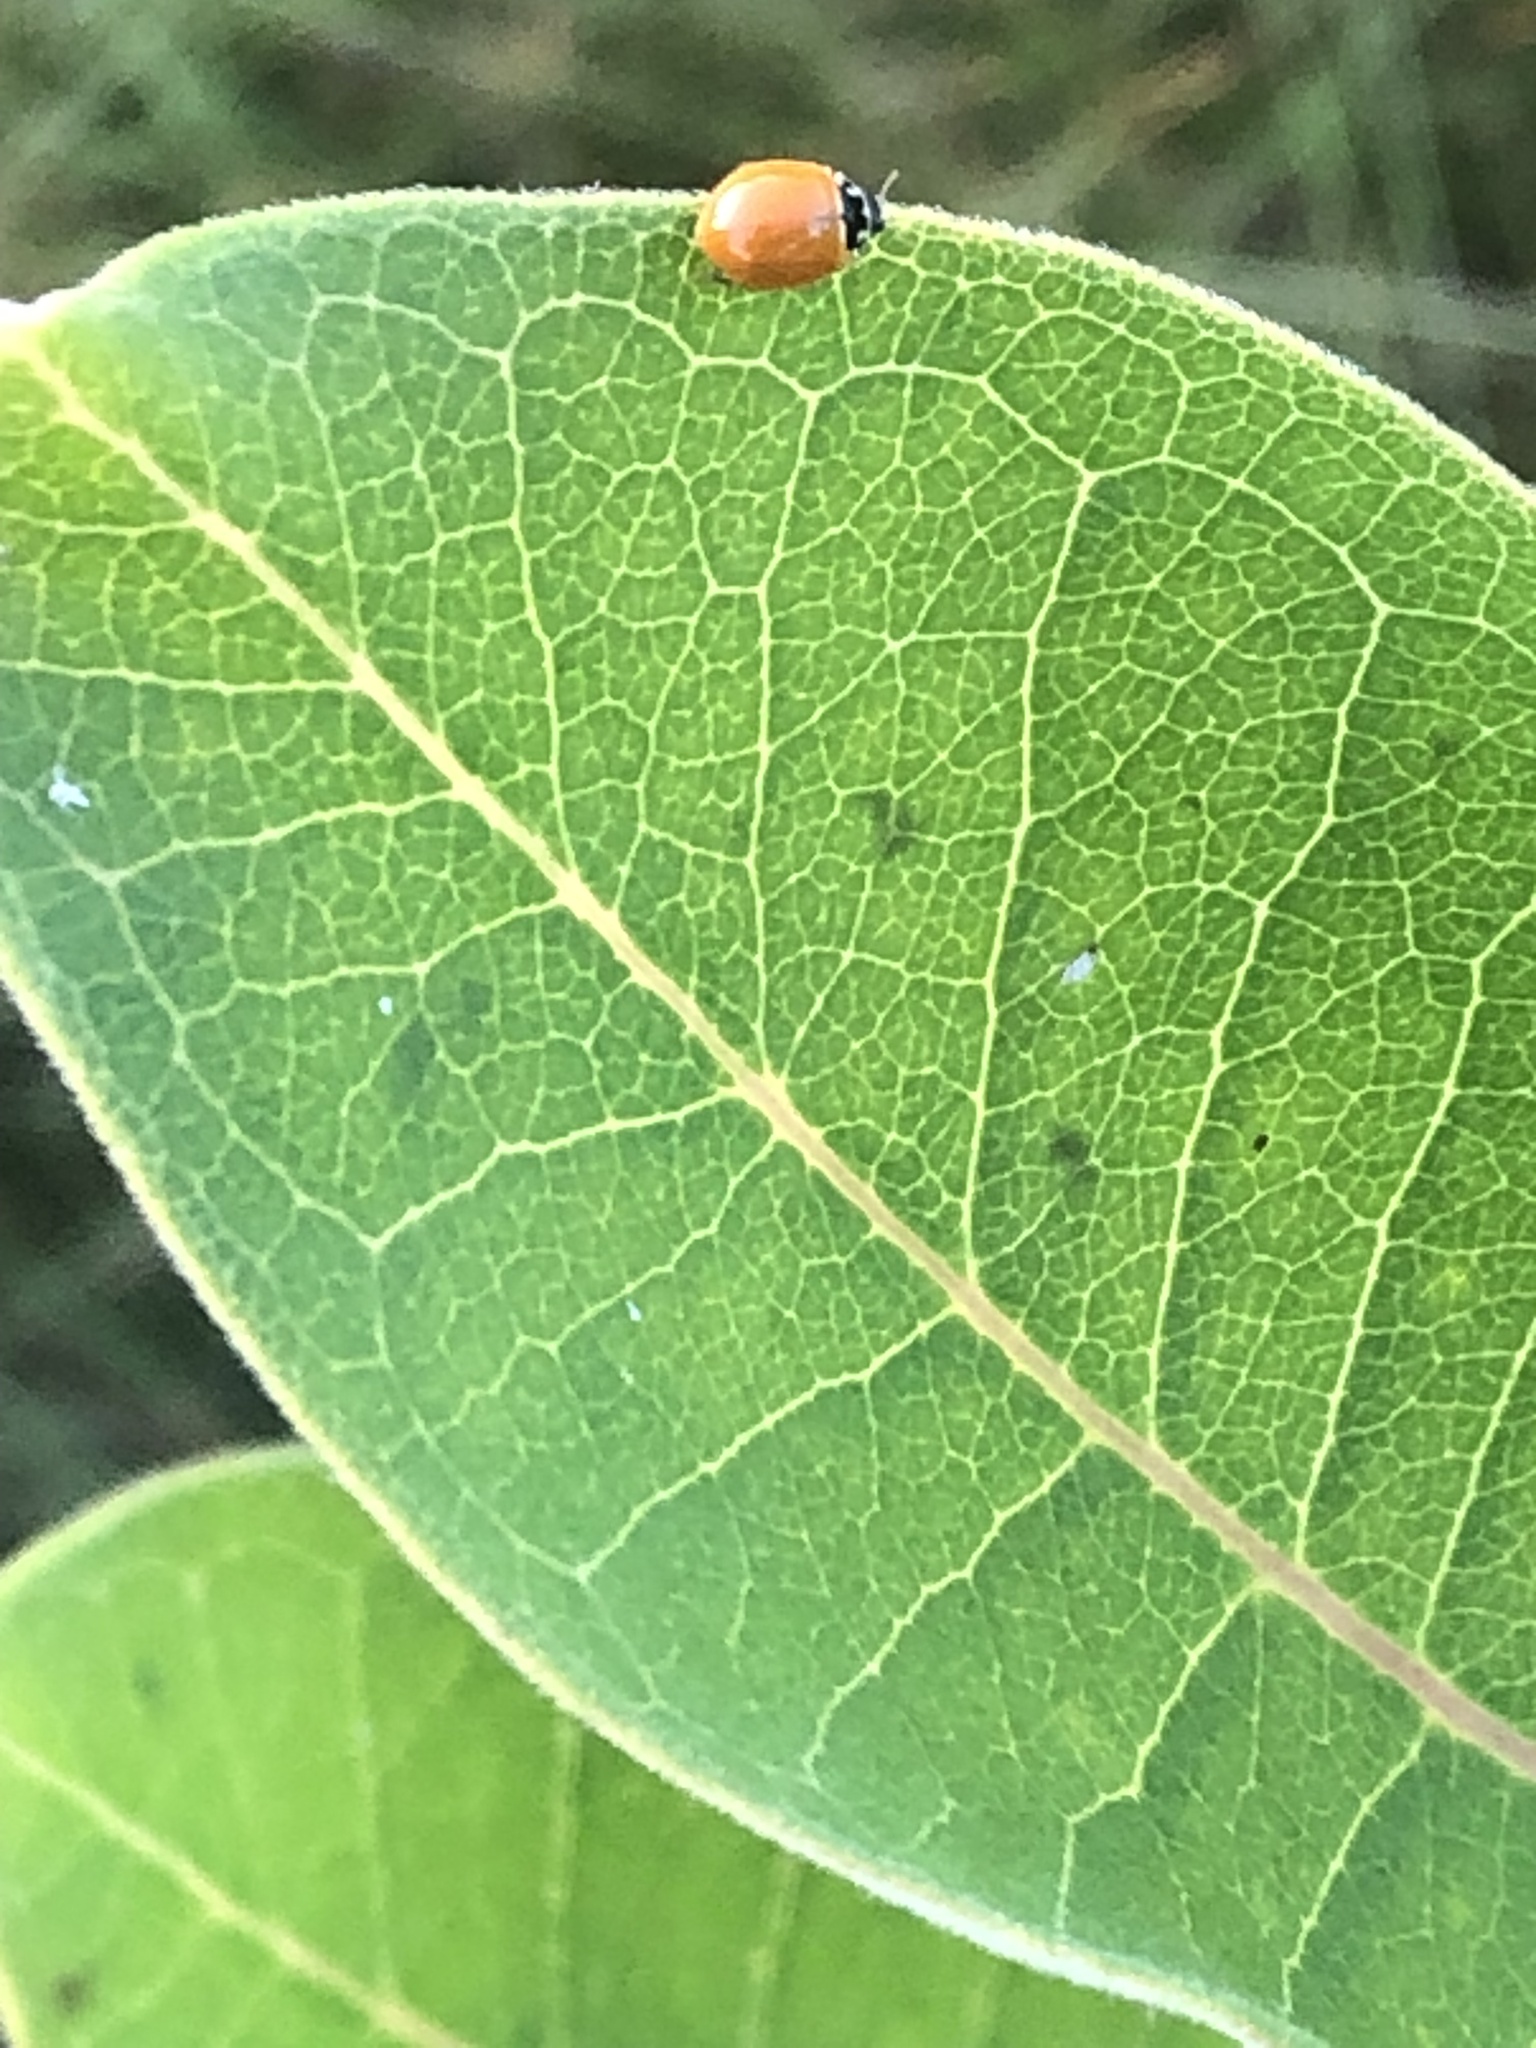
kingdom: Animalia
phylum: Arthropoda
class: Insecta
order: Coleoptera
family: Coccinellidae
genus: Cycloneda
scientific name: Cycloneda munda
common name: Polished lady beetle
